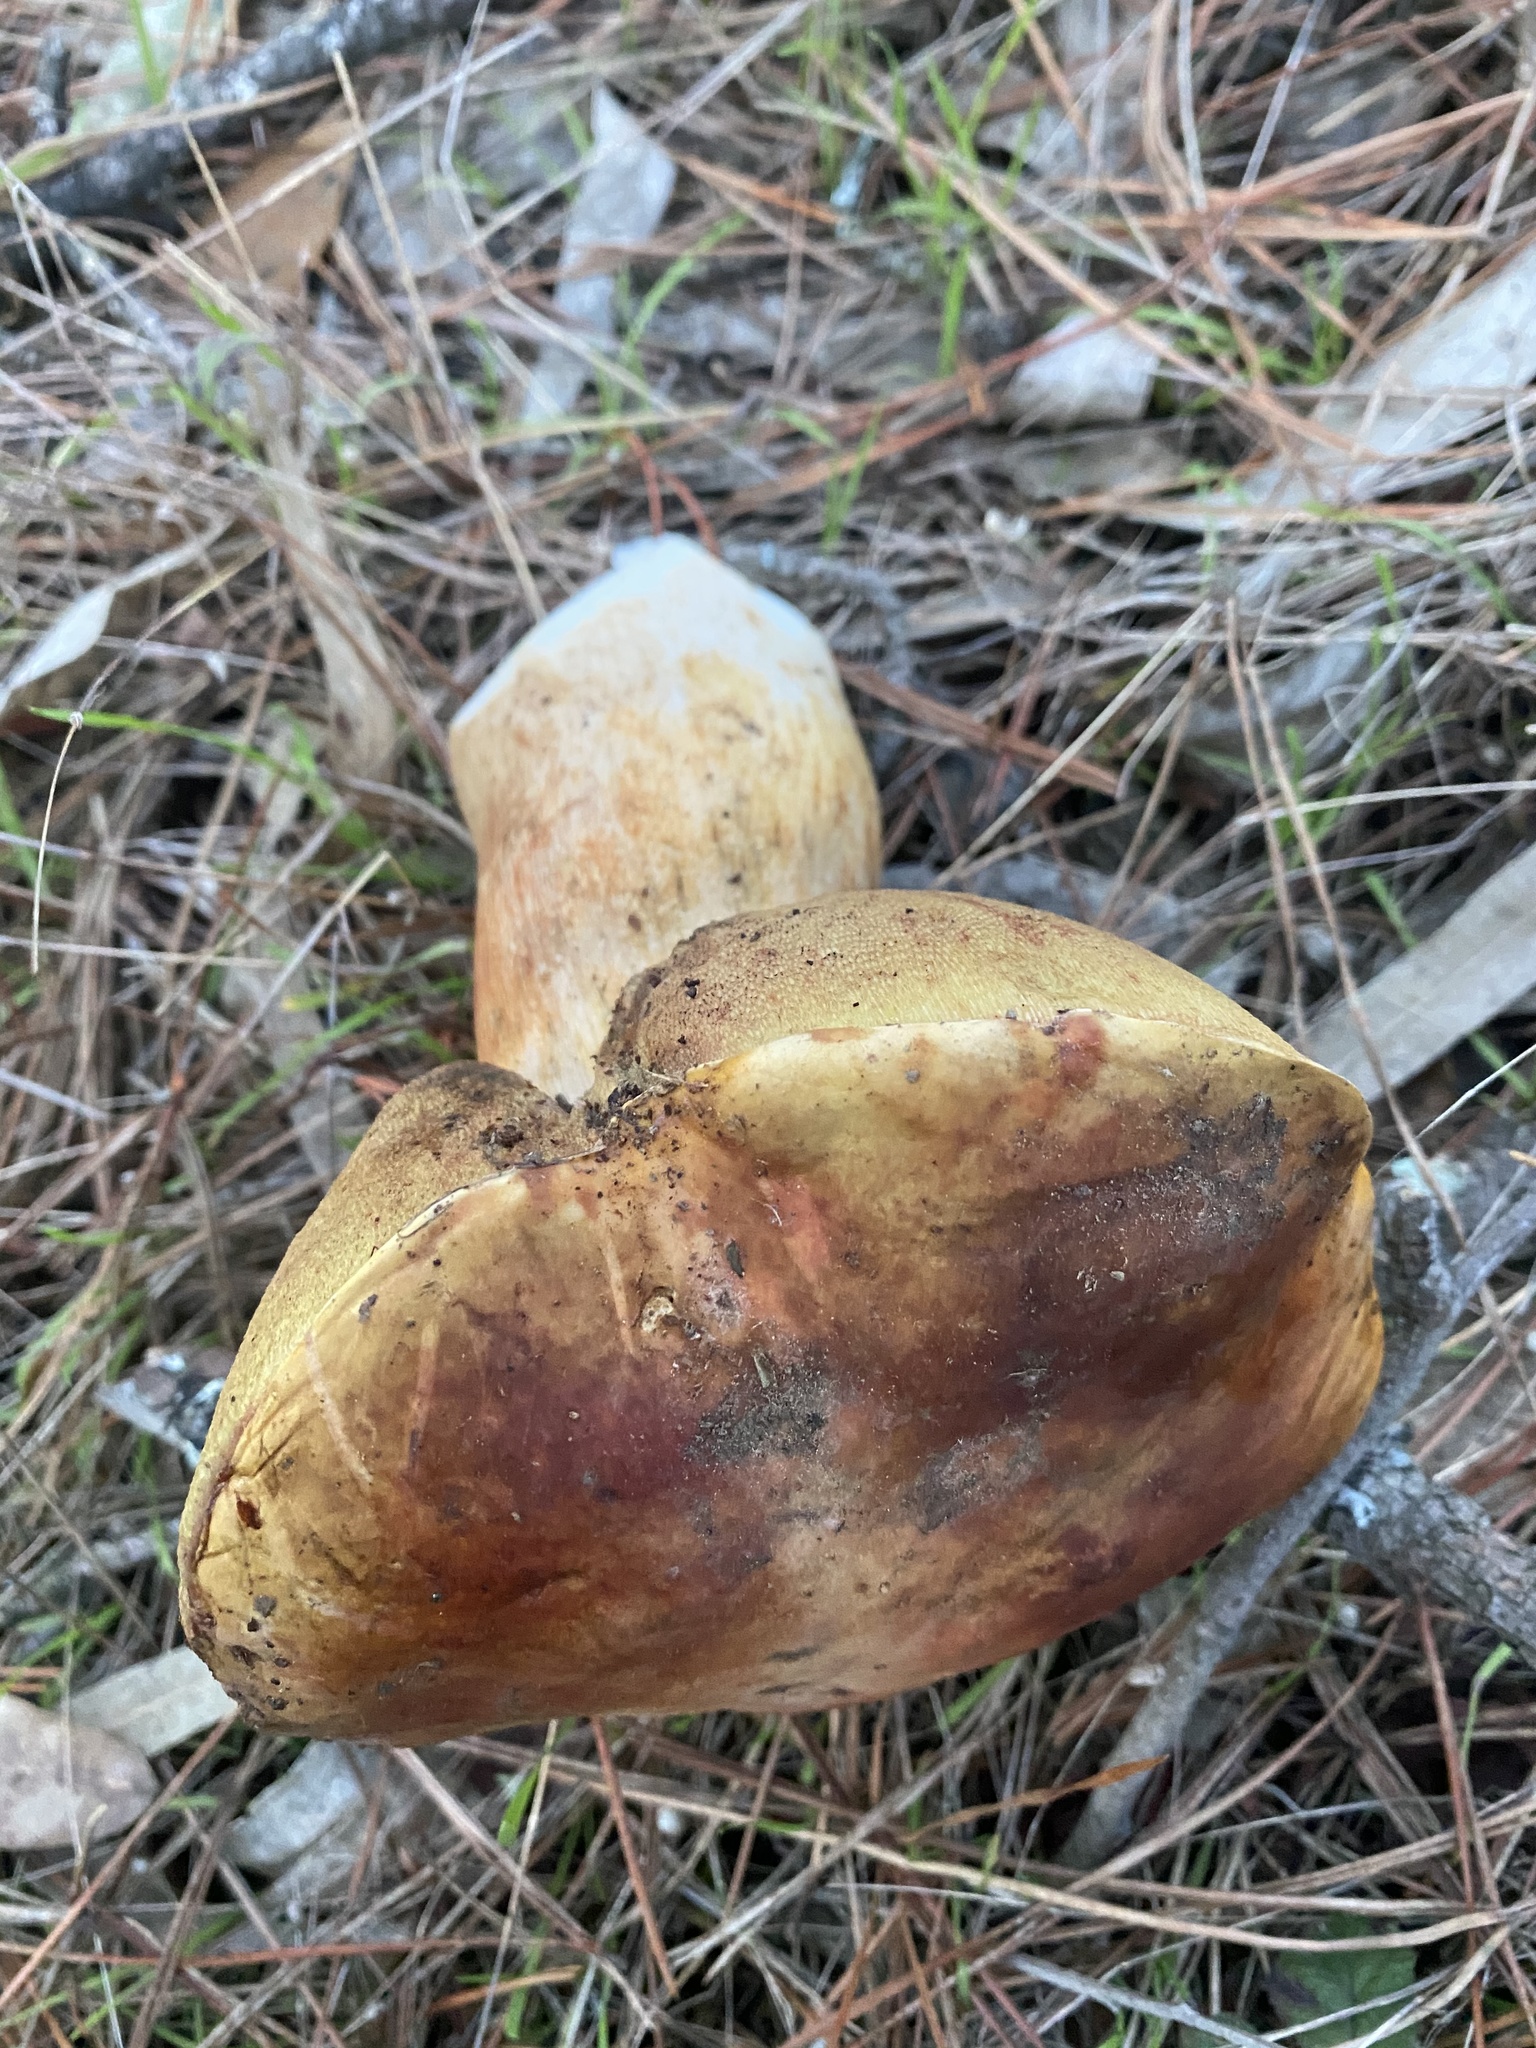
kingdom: Fungi
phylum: Basidiomycota
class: Agaricomycetes
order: Boletales
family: Boletaceae
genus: Boletus
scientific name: Boletus edulis
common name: Cep
